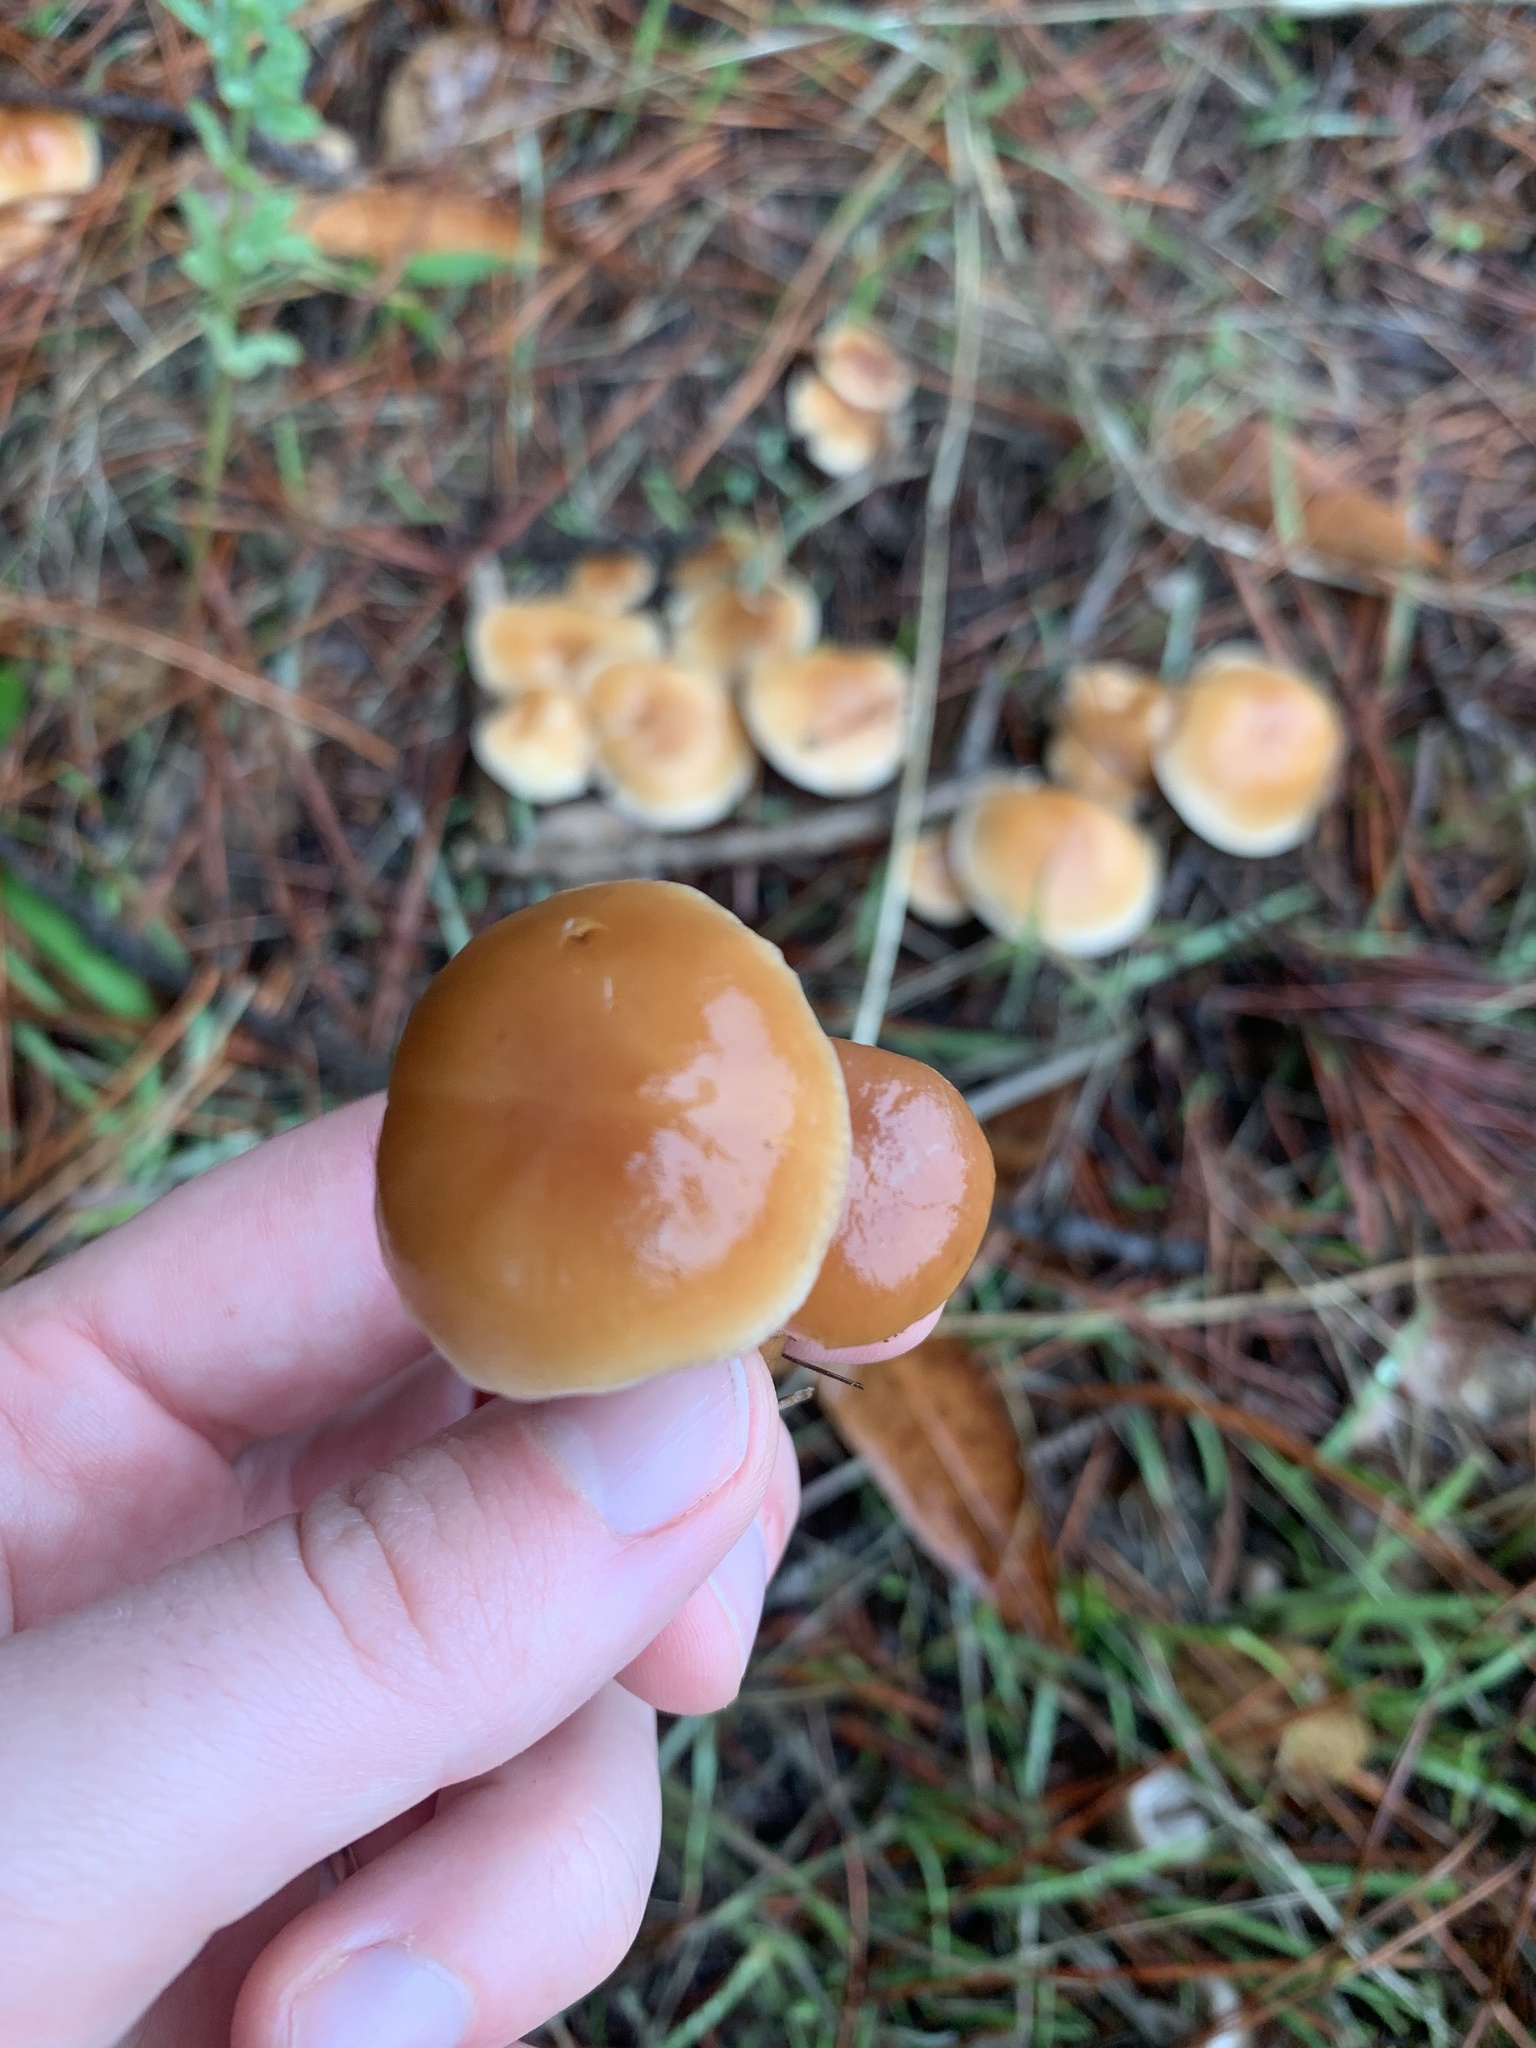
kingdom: Fungi
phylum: Basidiomycota
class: Agaricomycetes
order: Agaricales
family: Omphalotaceae
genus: Gymnopus
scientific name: Gymnopus dryophilus
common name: Penny top
